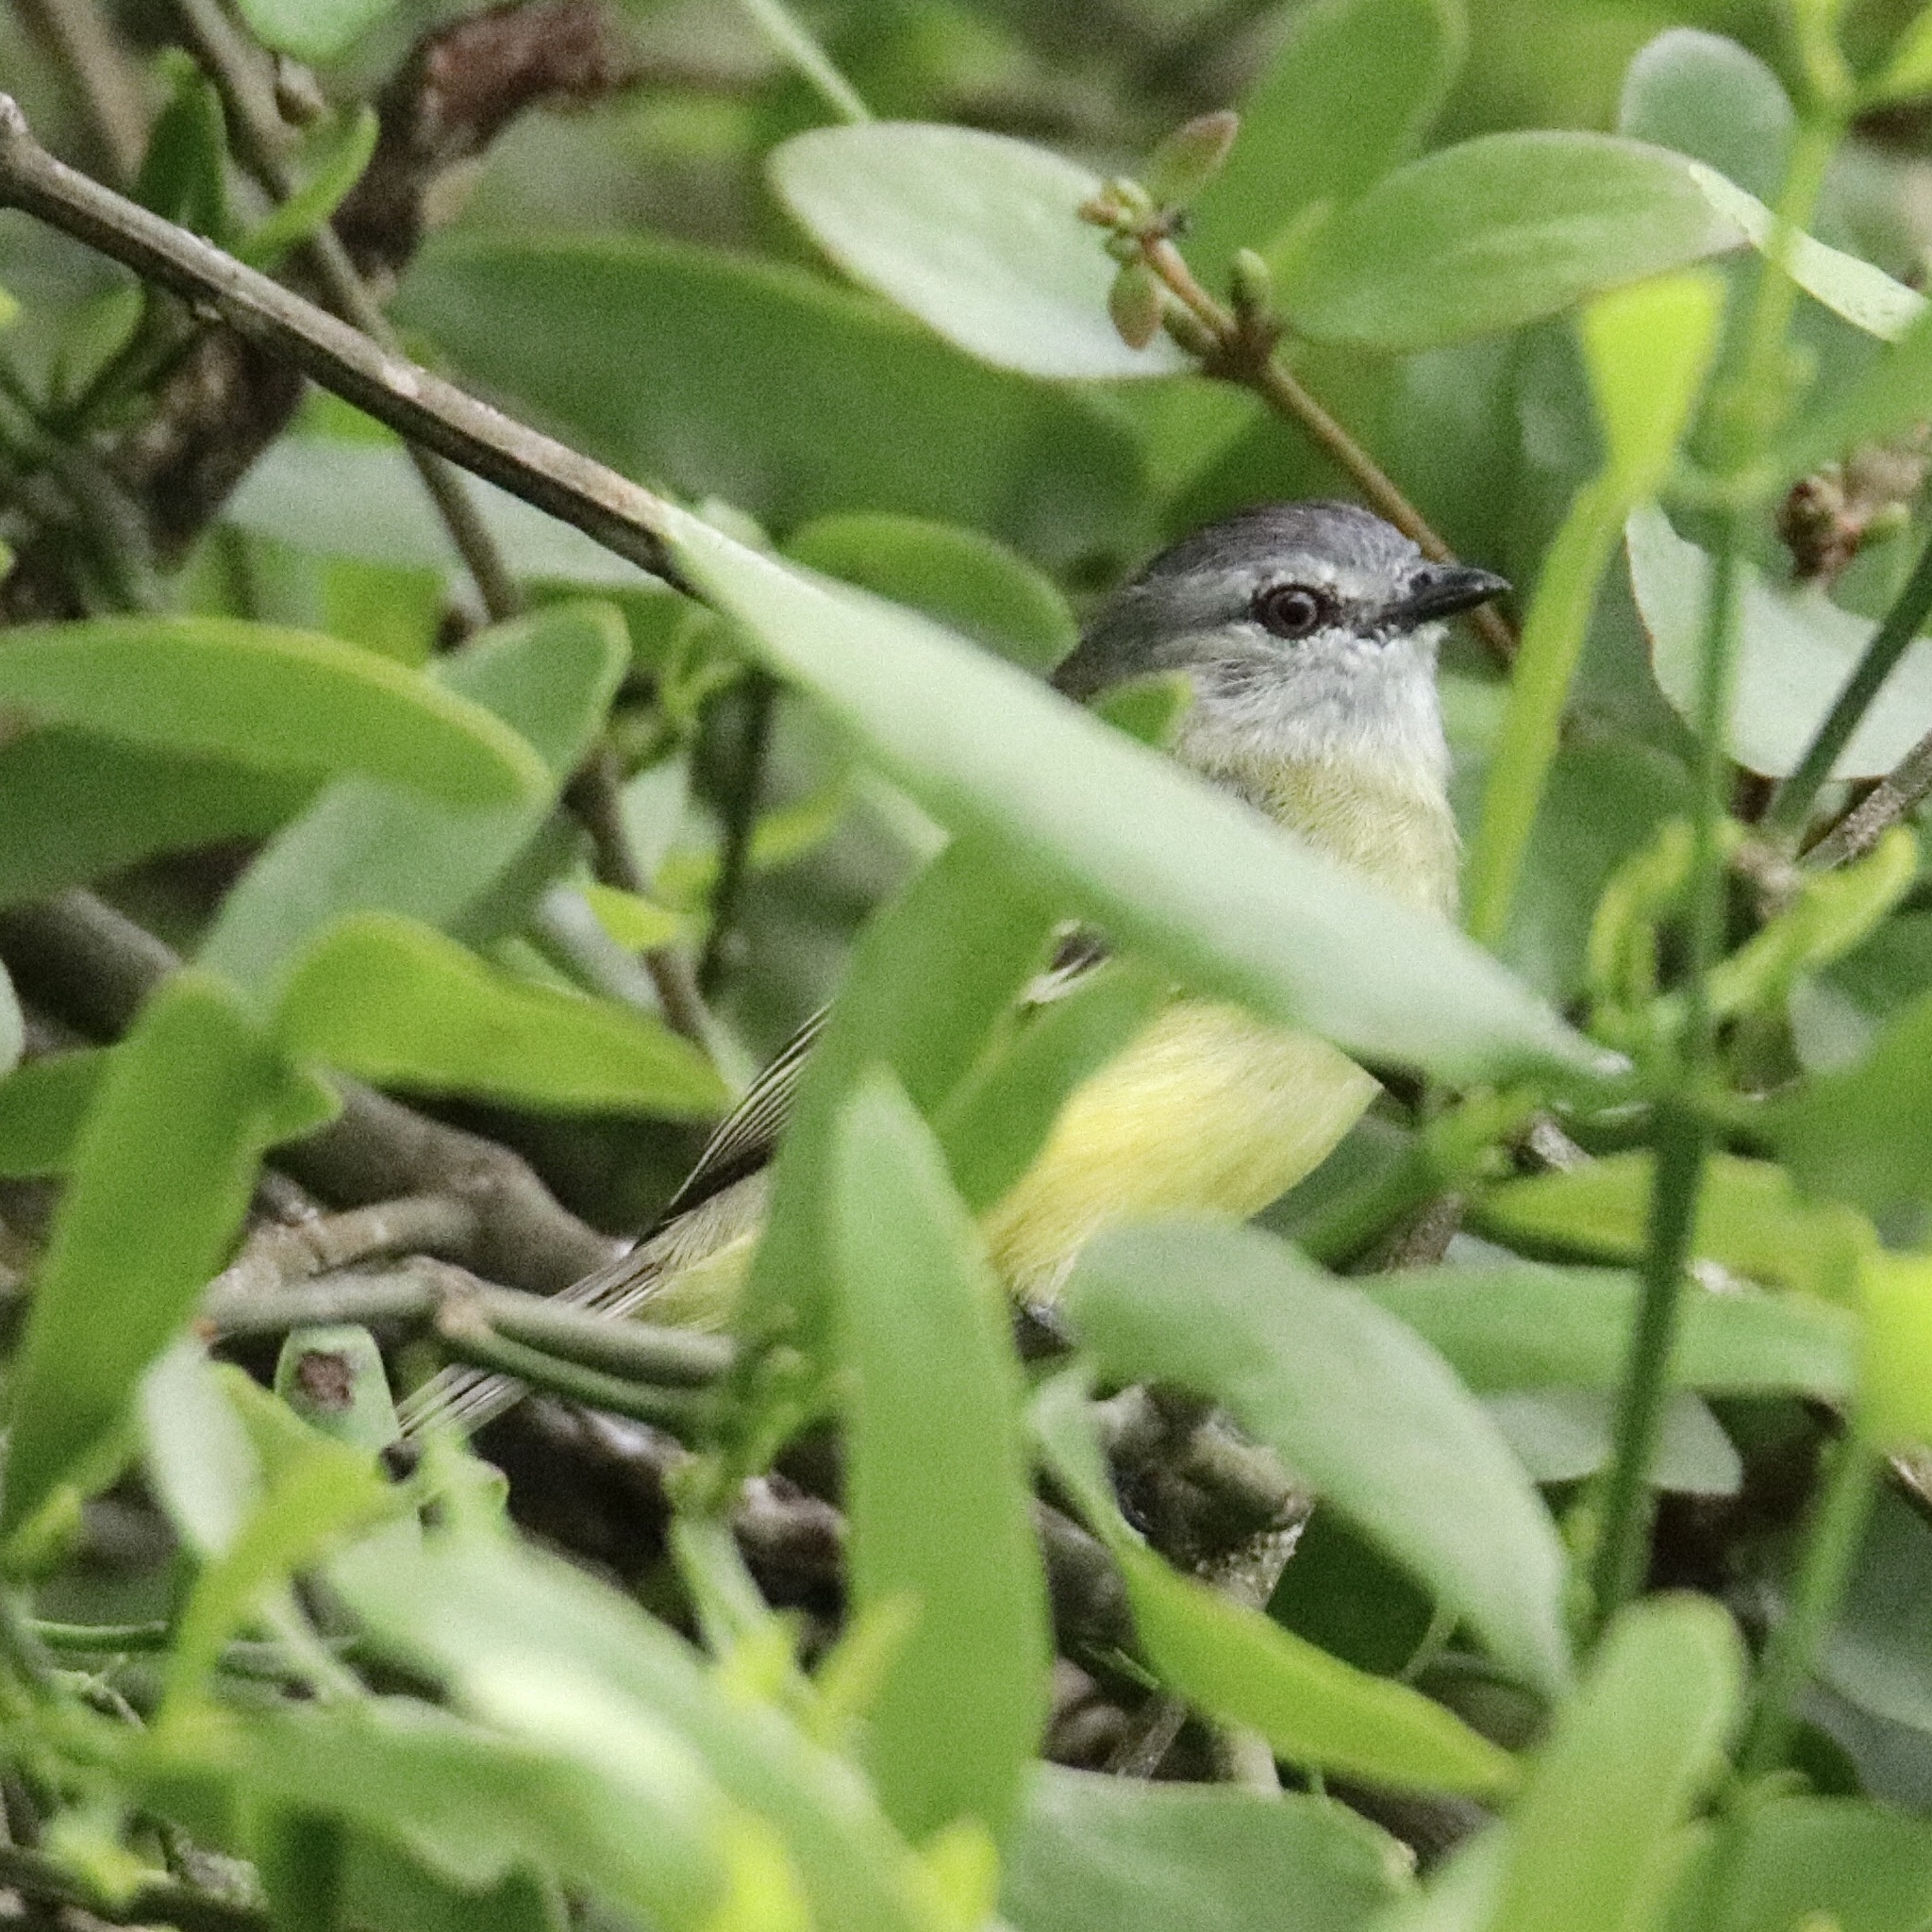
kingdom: Animalia
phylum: Chordata
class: Aves
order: Passeriformes
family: Tyrannidae
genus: Tyrannulus
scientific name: Tyrannulus elatus
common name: Yellow-crowned tyrannulet
